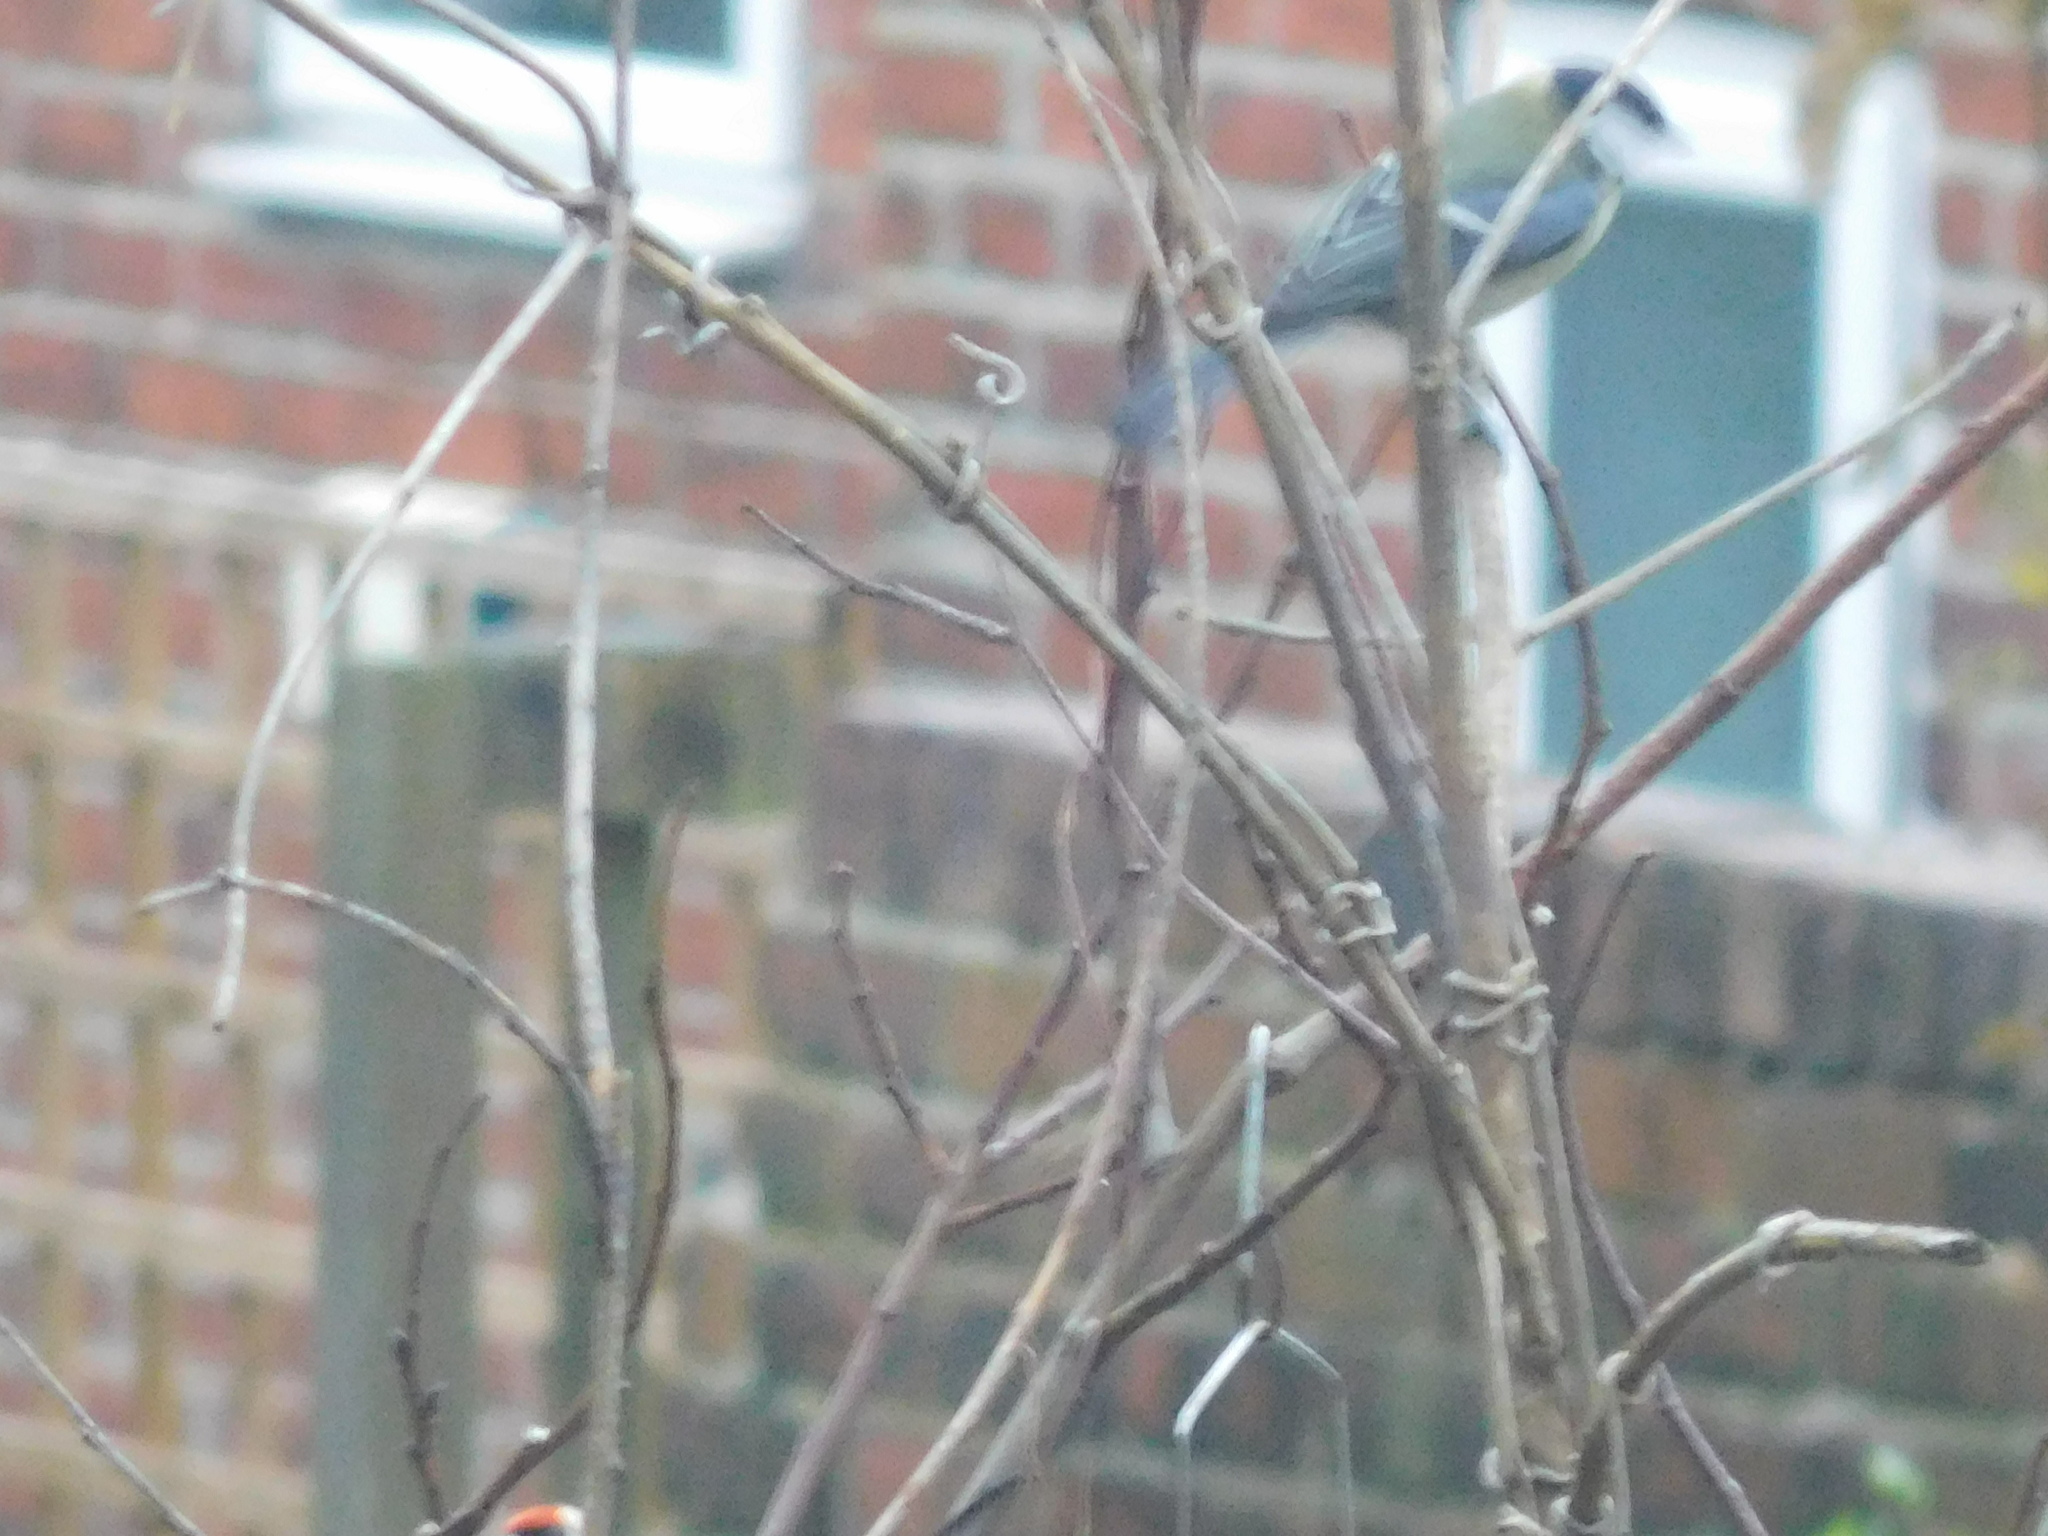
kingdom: Animalia
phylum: Chordata
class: Aves
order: Passeriformes
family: Paridae
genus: Parus
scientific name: Parus major
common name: Great tit
